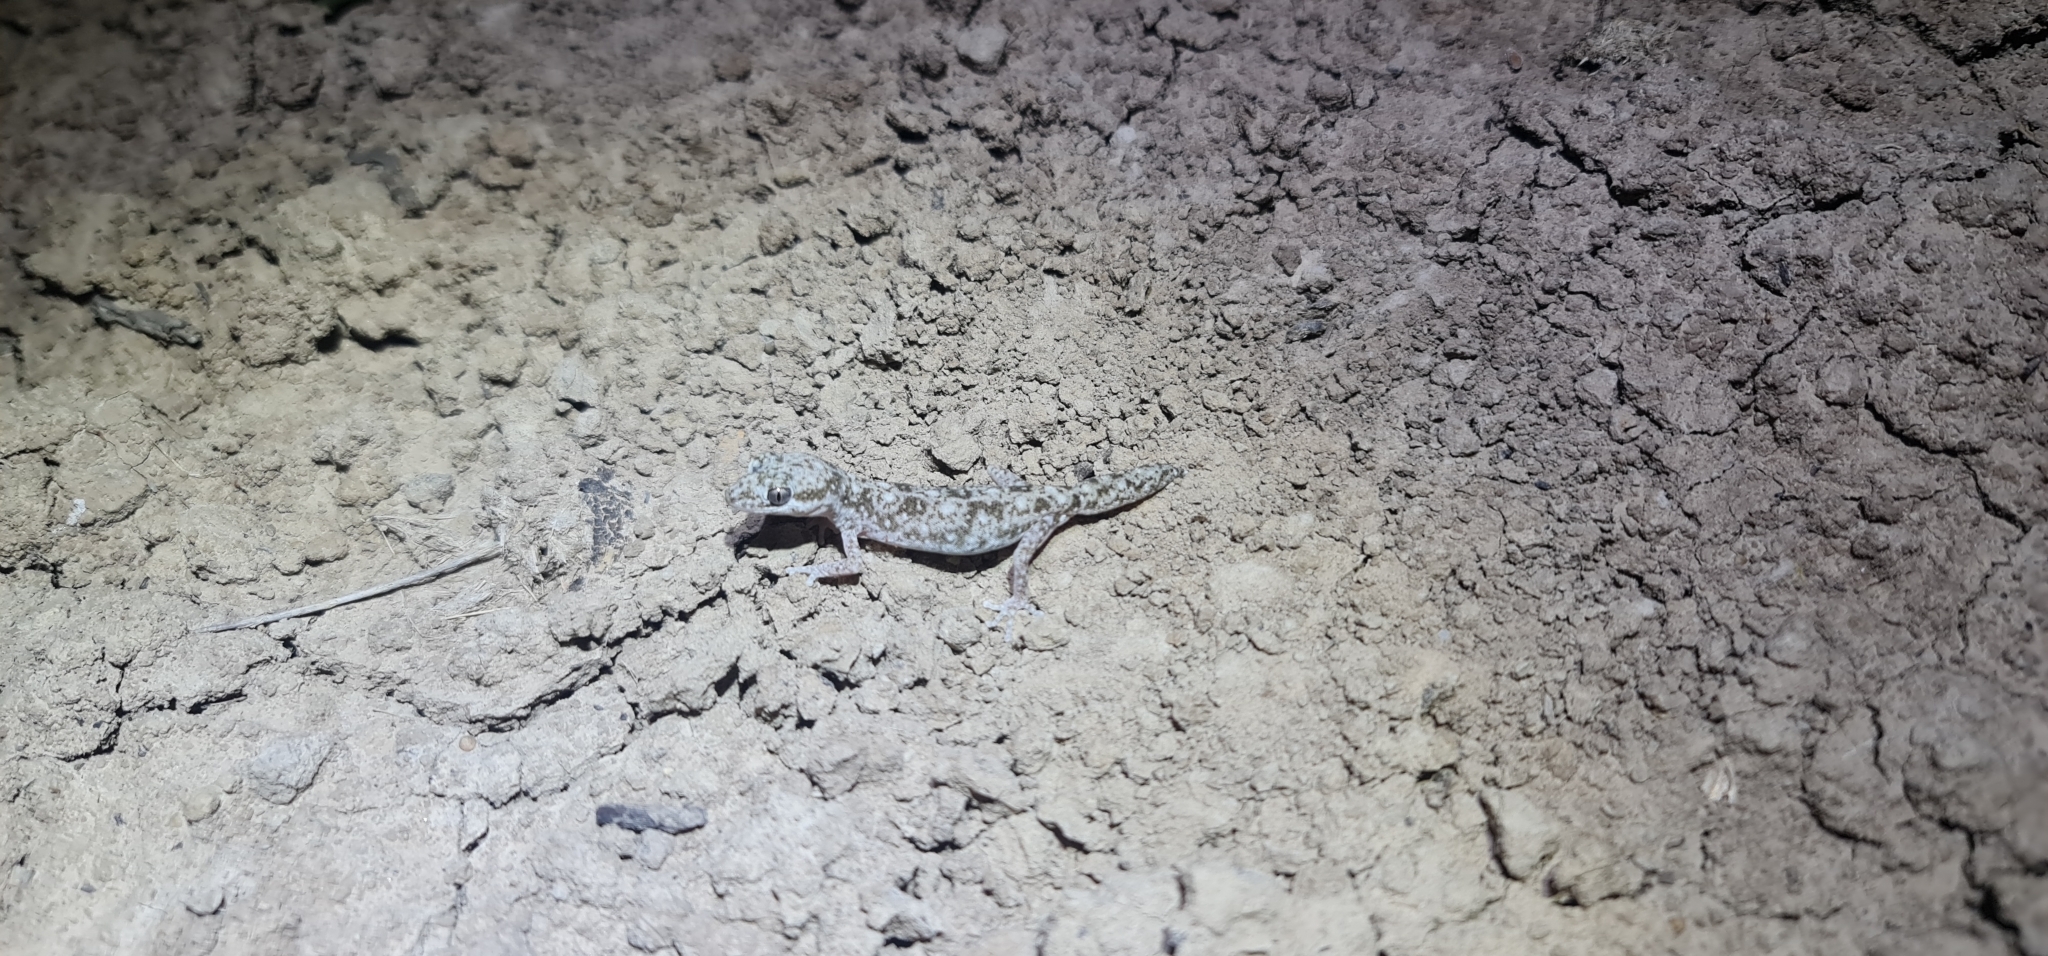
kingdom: Animalia
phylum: Chordata
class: Squamata
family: Diplodactylidae
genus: Diplodactylus
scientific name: Diplodactylus tessellatus
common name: Tesselated gecko
